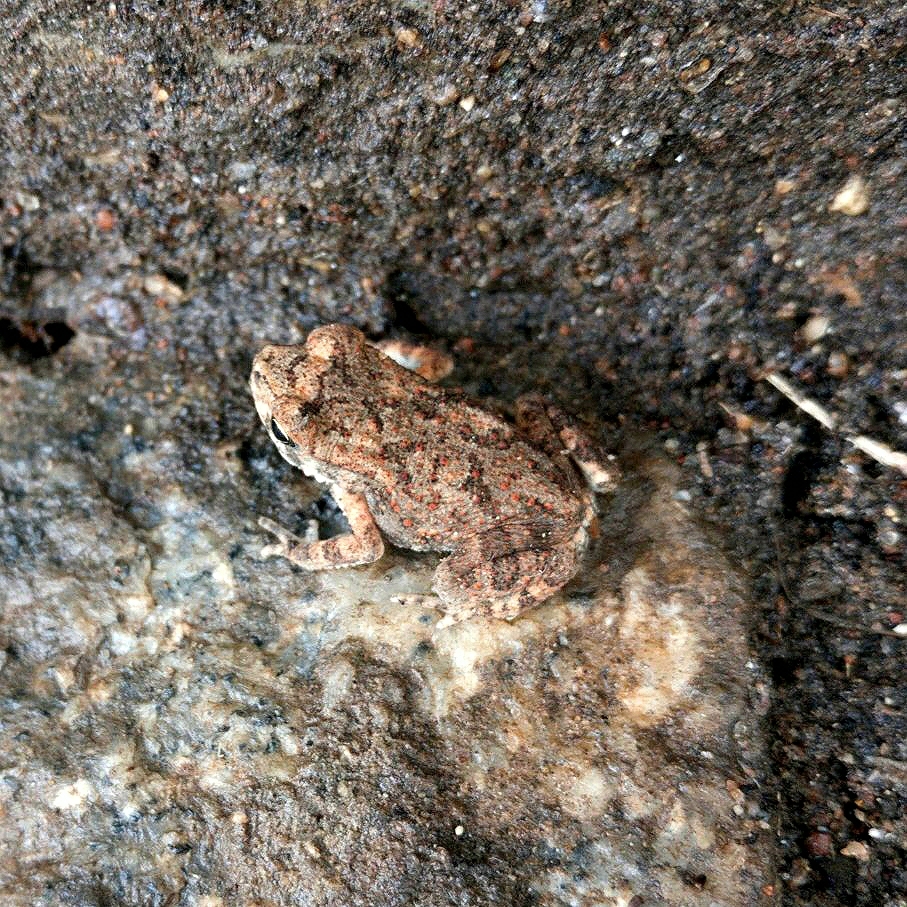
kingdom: Animalia
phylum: Chordata
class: Amphibia
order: Anura
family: Bufonidae
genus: Duttaphrynus
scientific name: Duttaphrynus melanostictus
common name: Common sunda toad
